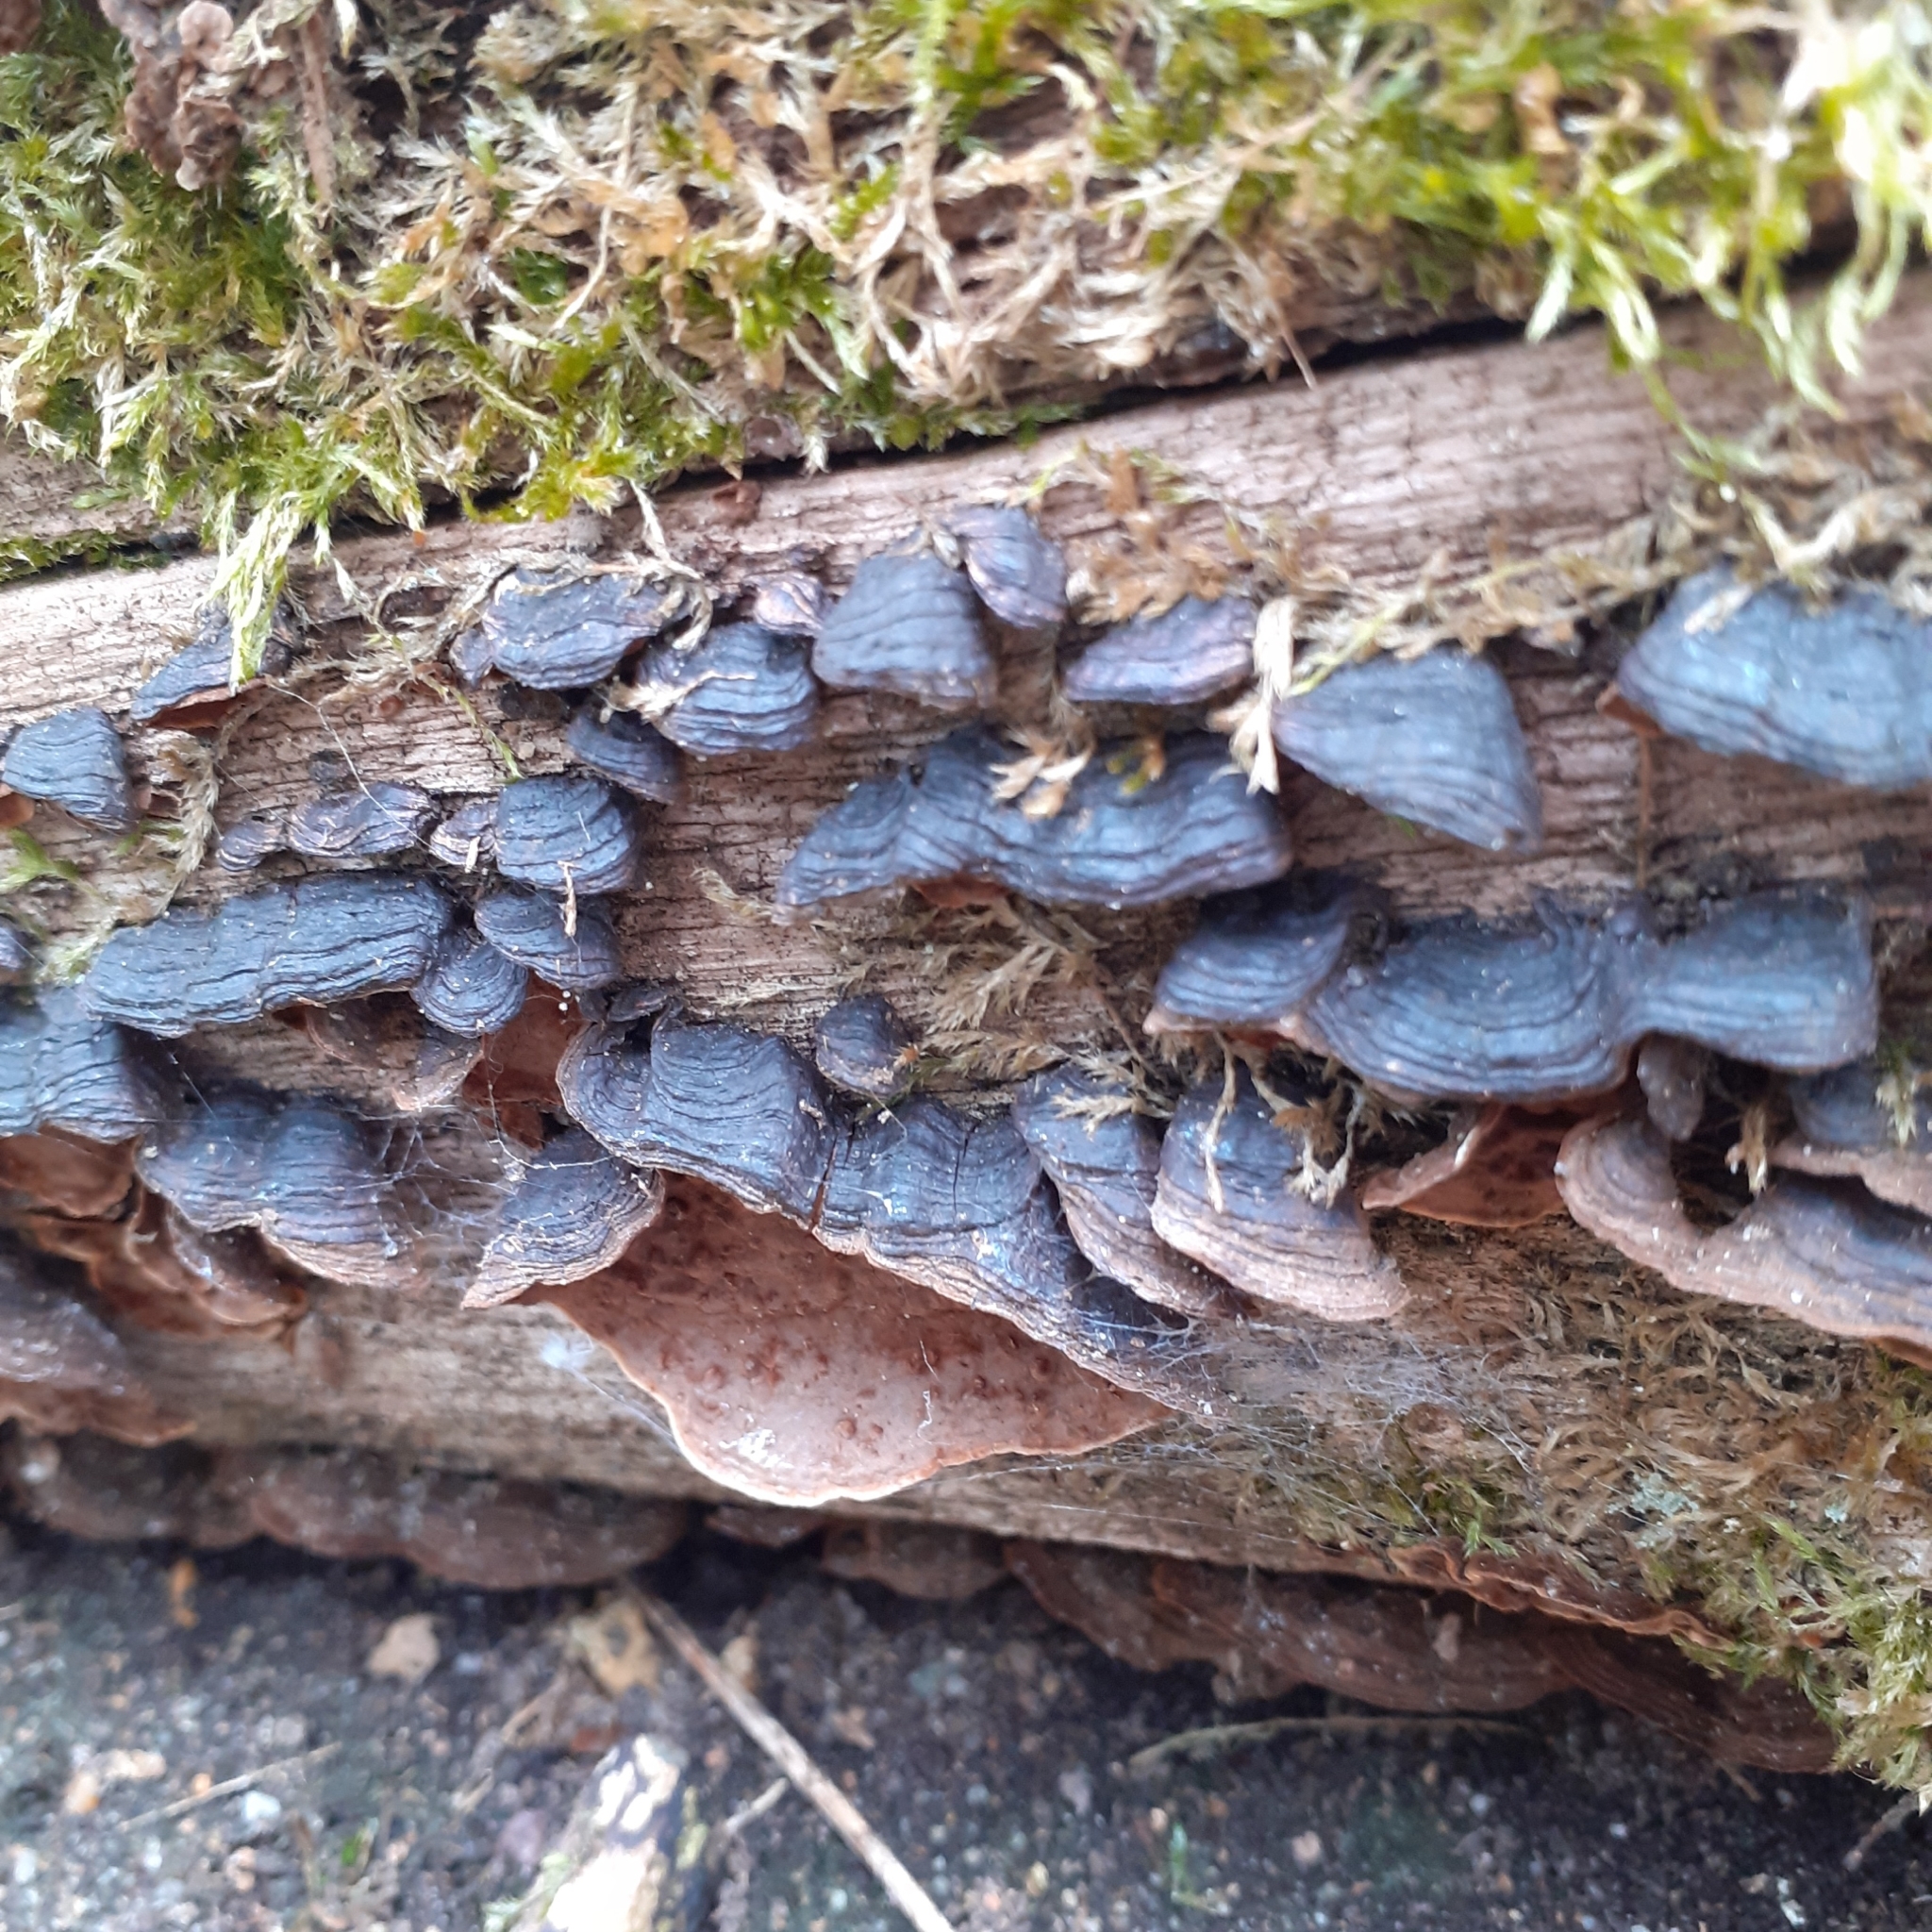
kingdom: Fungi
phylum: Basidiomycota
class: Agaricomycetes
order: Hymenochaetales
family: Hymenochaetaceae
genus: Hymenochaete
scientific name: Hymenochaete rubiginosa
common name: Oak curtain crust
